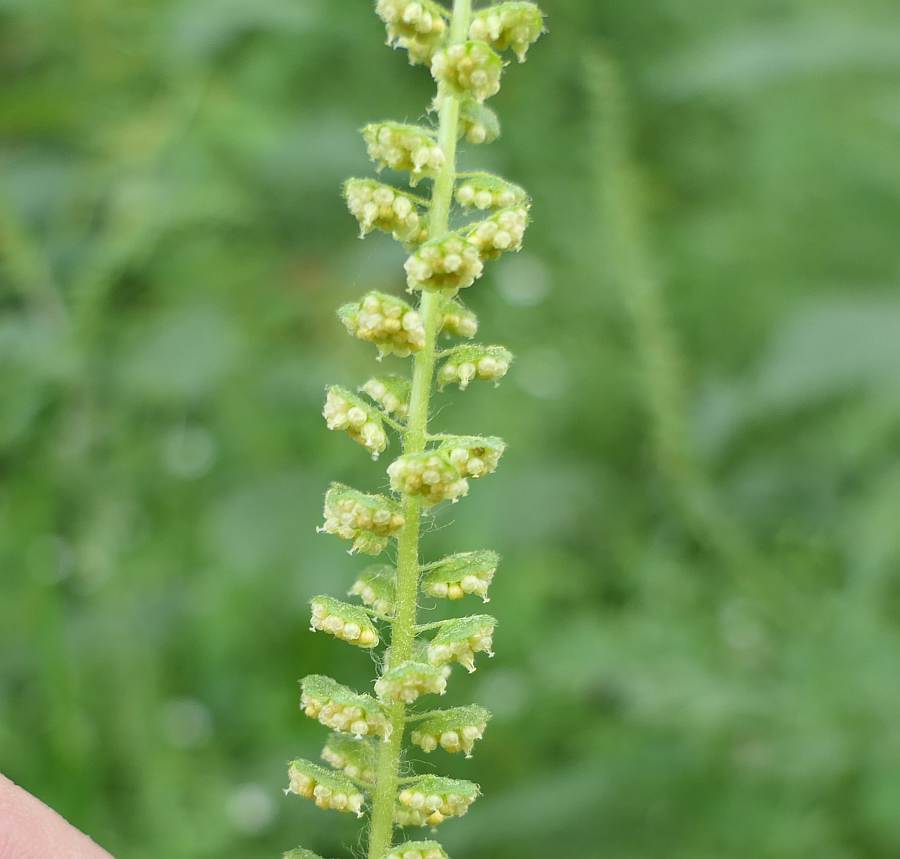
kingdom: Plantae
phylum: Tracheophyta
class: Magnoliopsida
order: Asterales
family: Asteraceae
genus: Ambrosia
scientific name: Ambrosia artemisiifolia
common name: Annual ragweed
